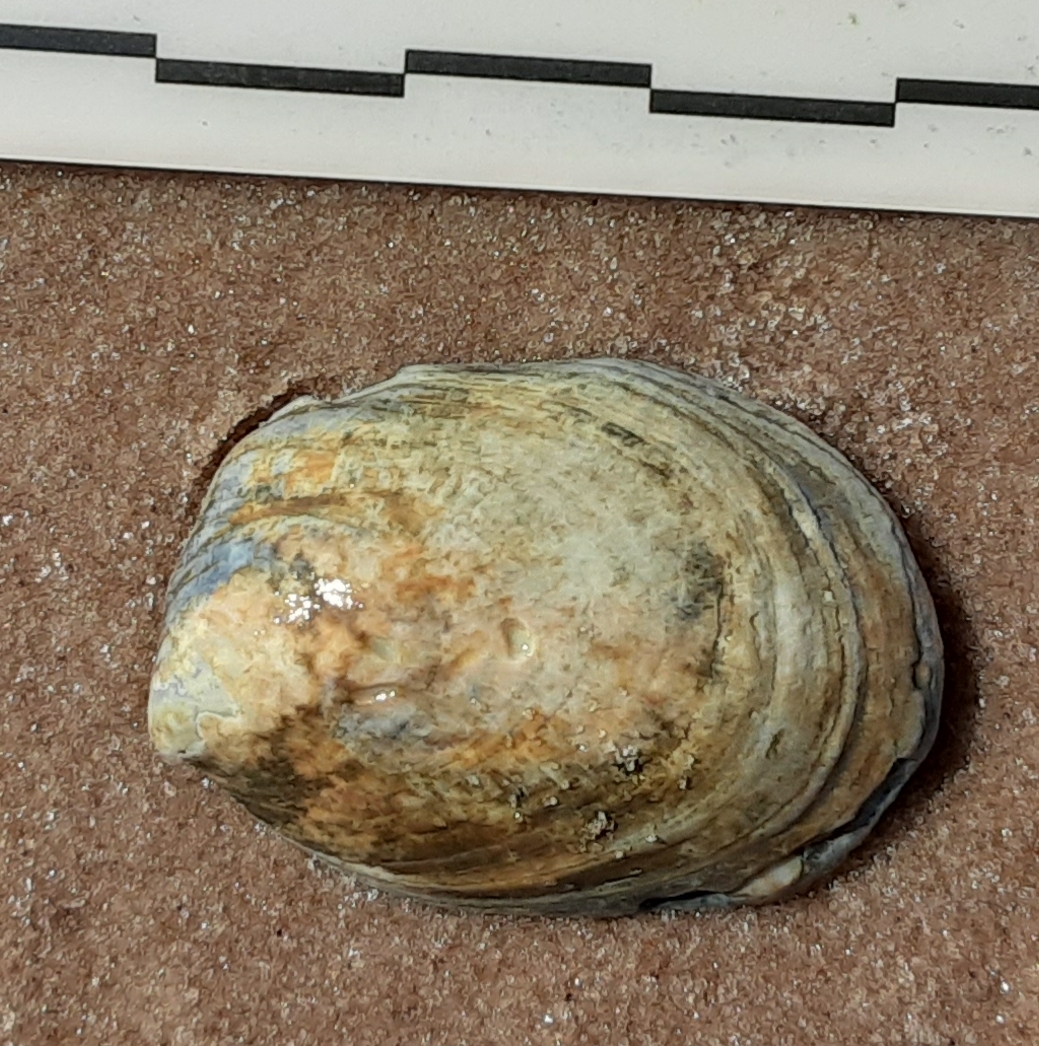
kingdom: Animalia
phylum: Mollusca
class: Gastropoda
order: Littorinimorpha
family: Calyptraeidae
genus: Crepidula
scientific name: Crepidula fornicata
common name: Slipper limpet
